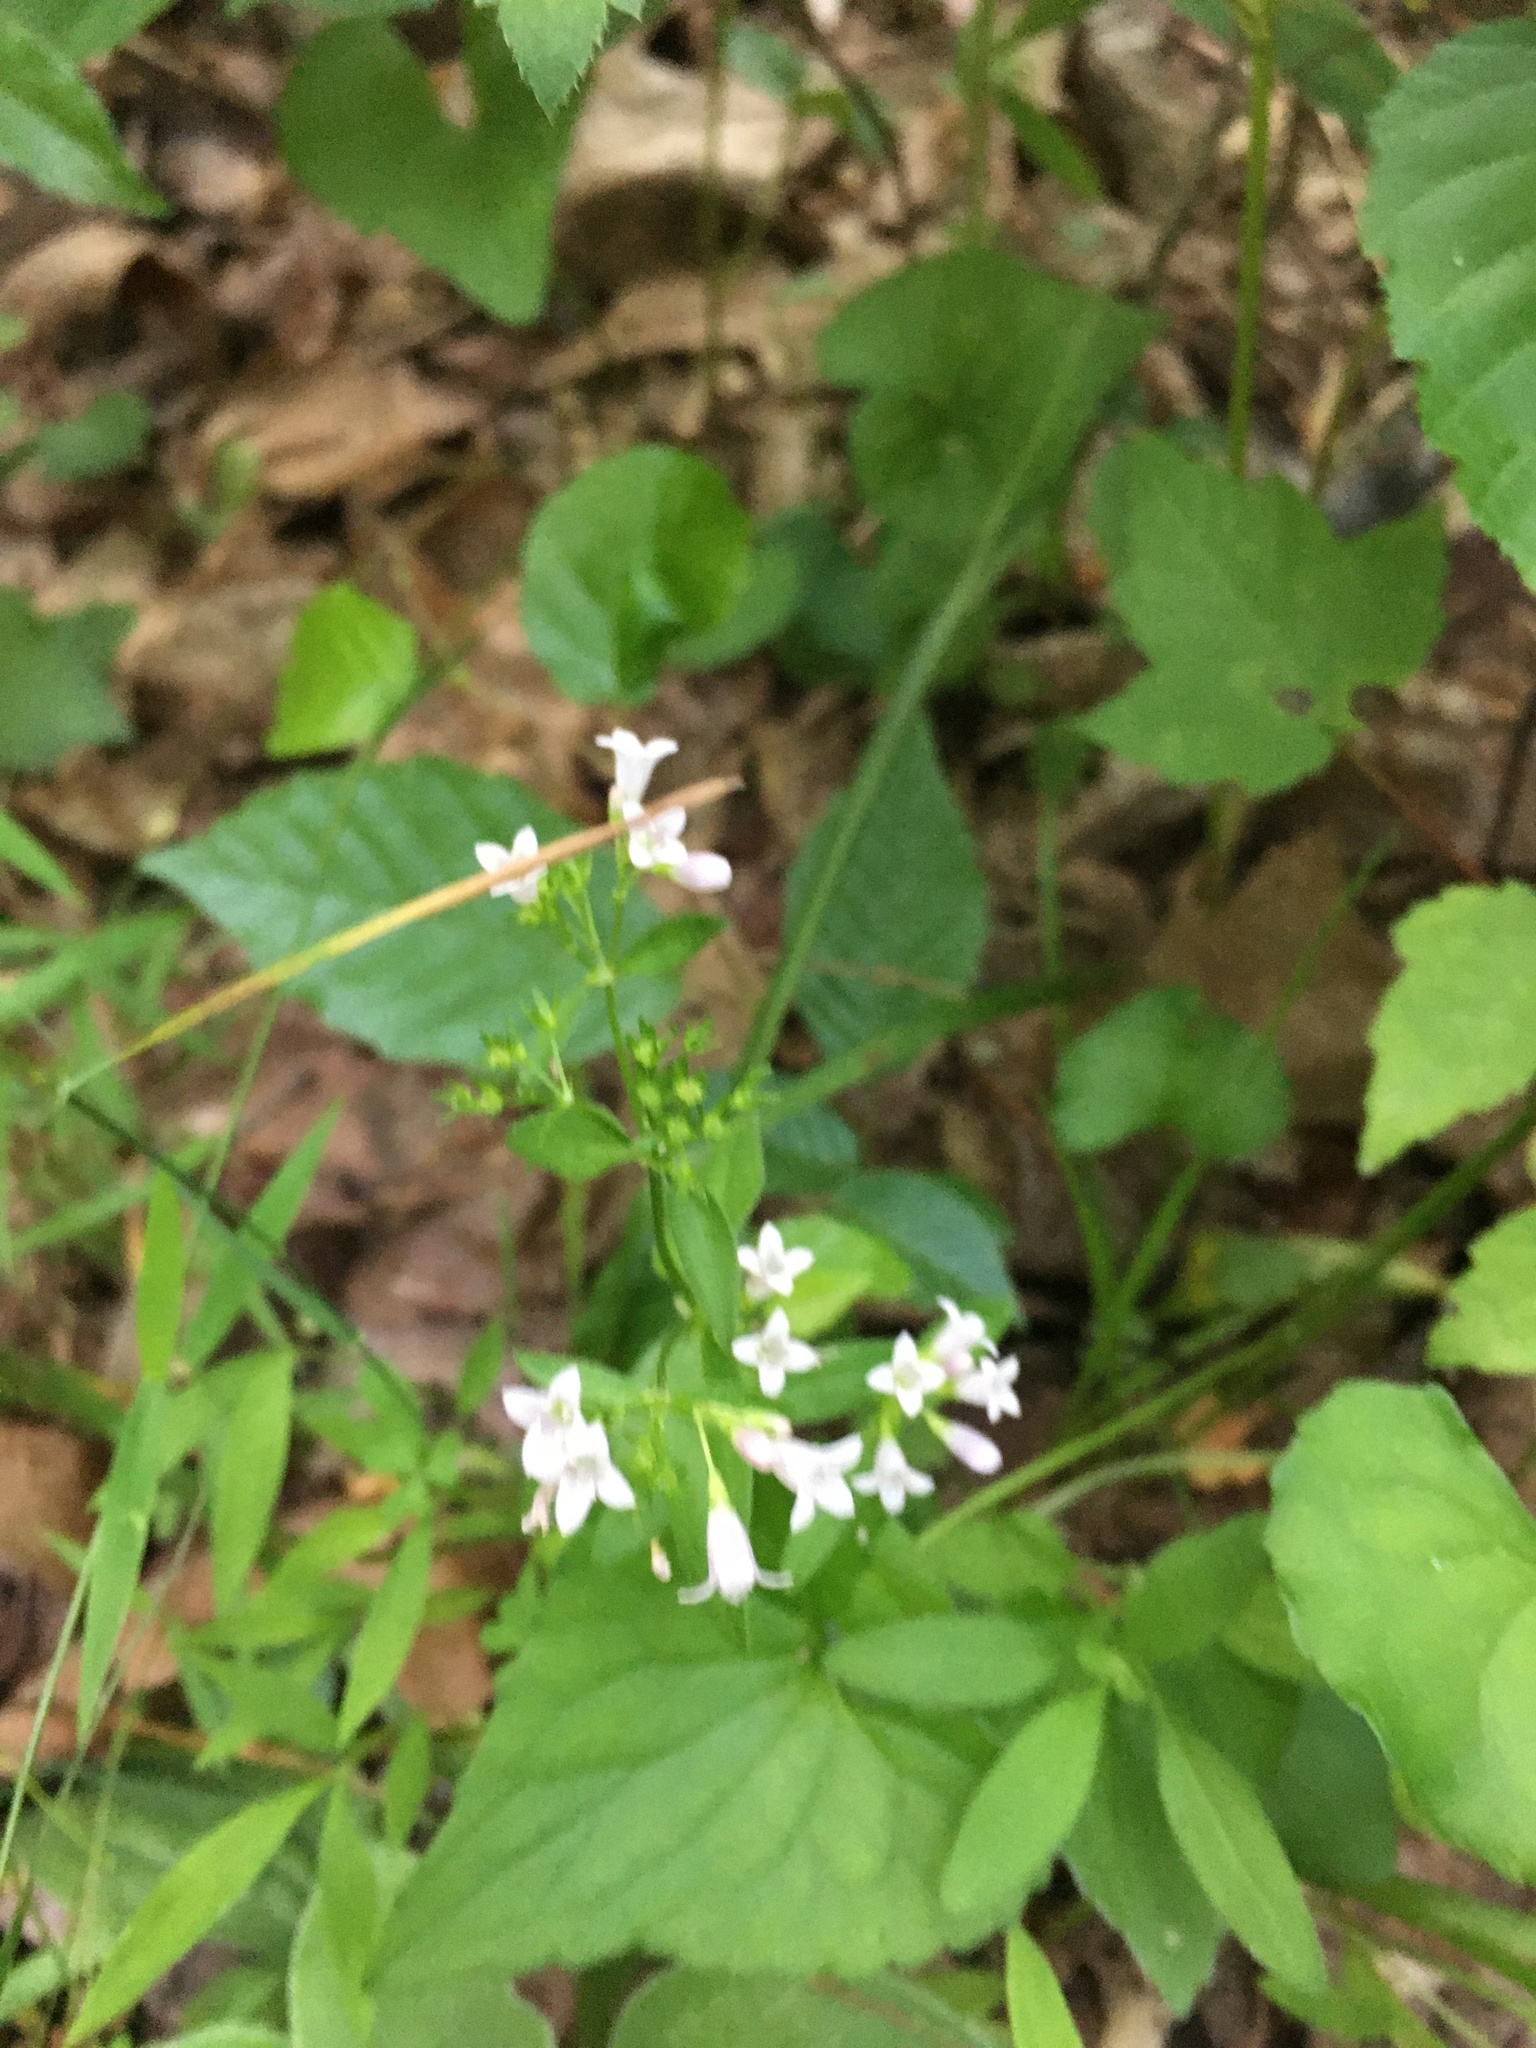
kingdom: Plantae
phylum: Tracheophyta
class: Magnoliopsida
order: Gentianales
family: Rubiaceae
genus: Houstonia
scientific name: Houstonia purpurea
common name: Summer bluet
